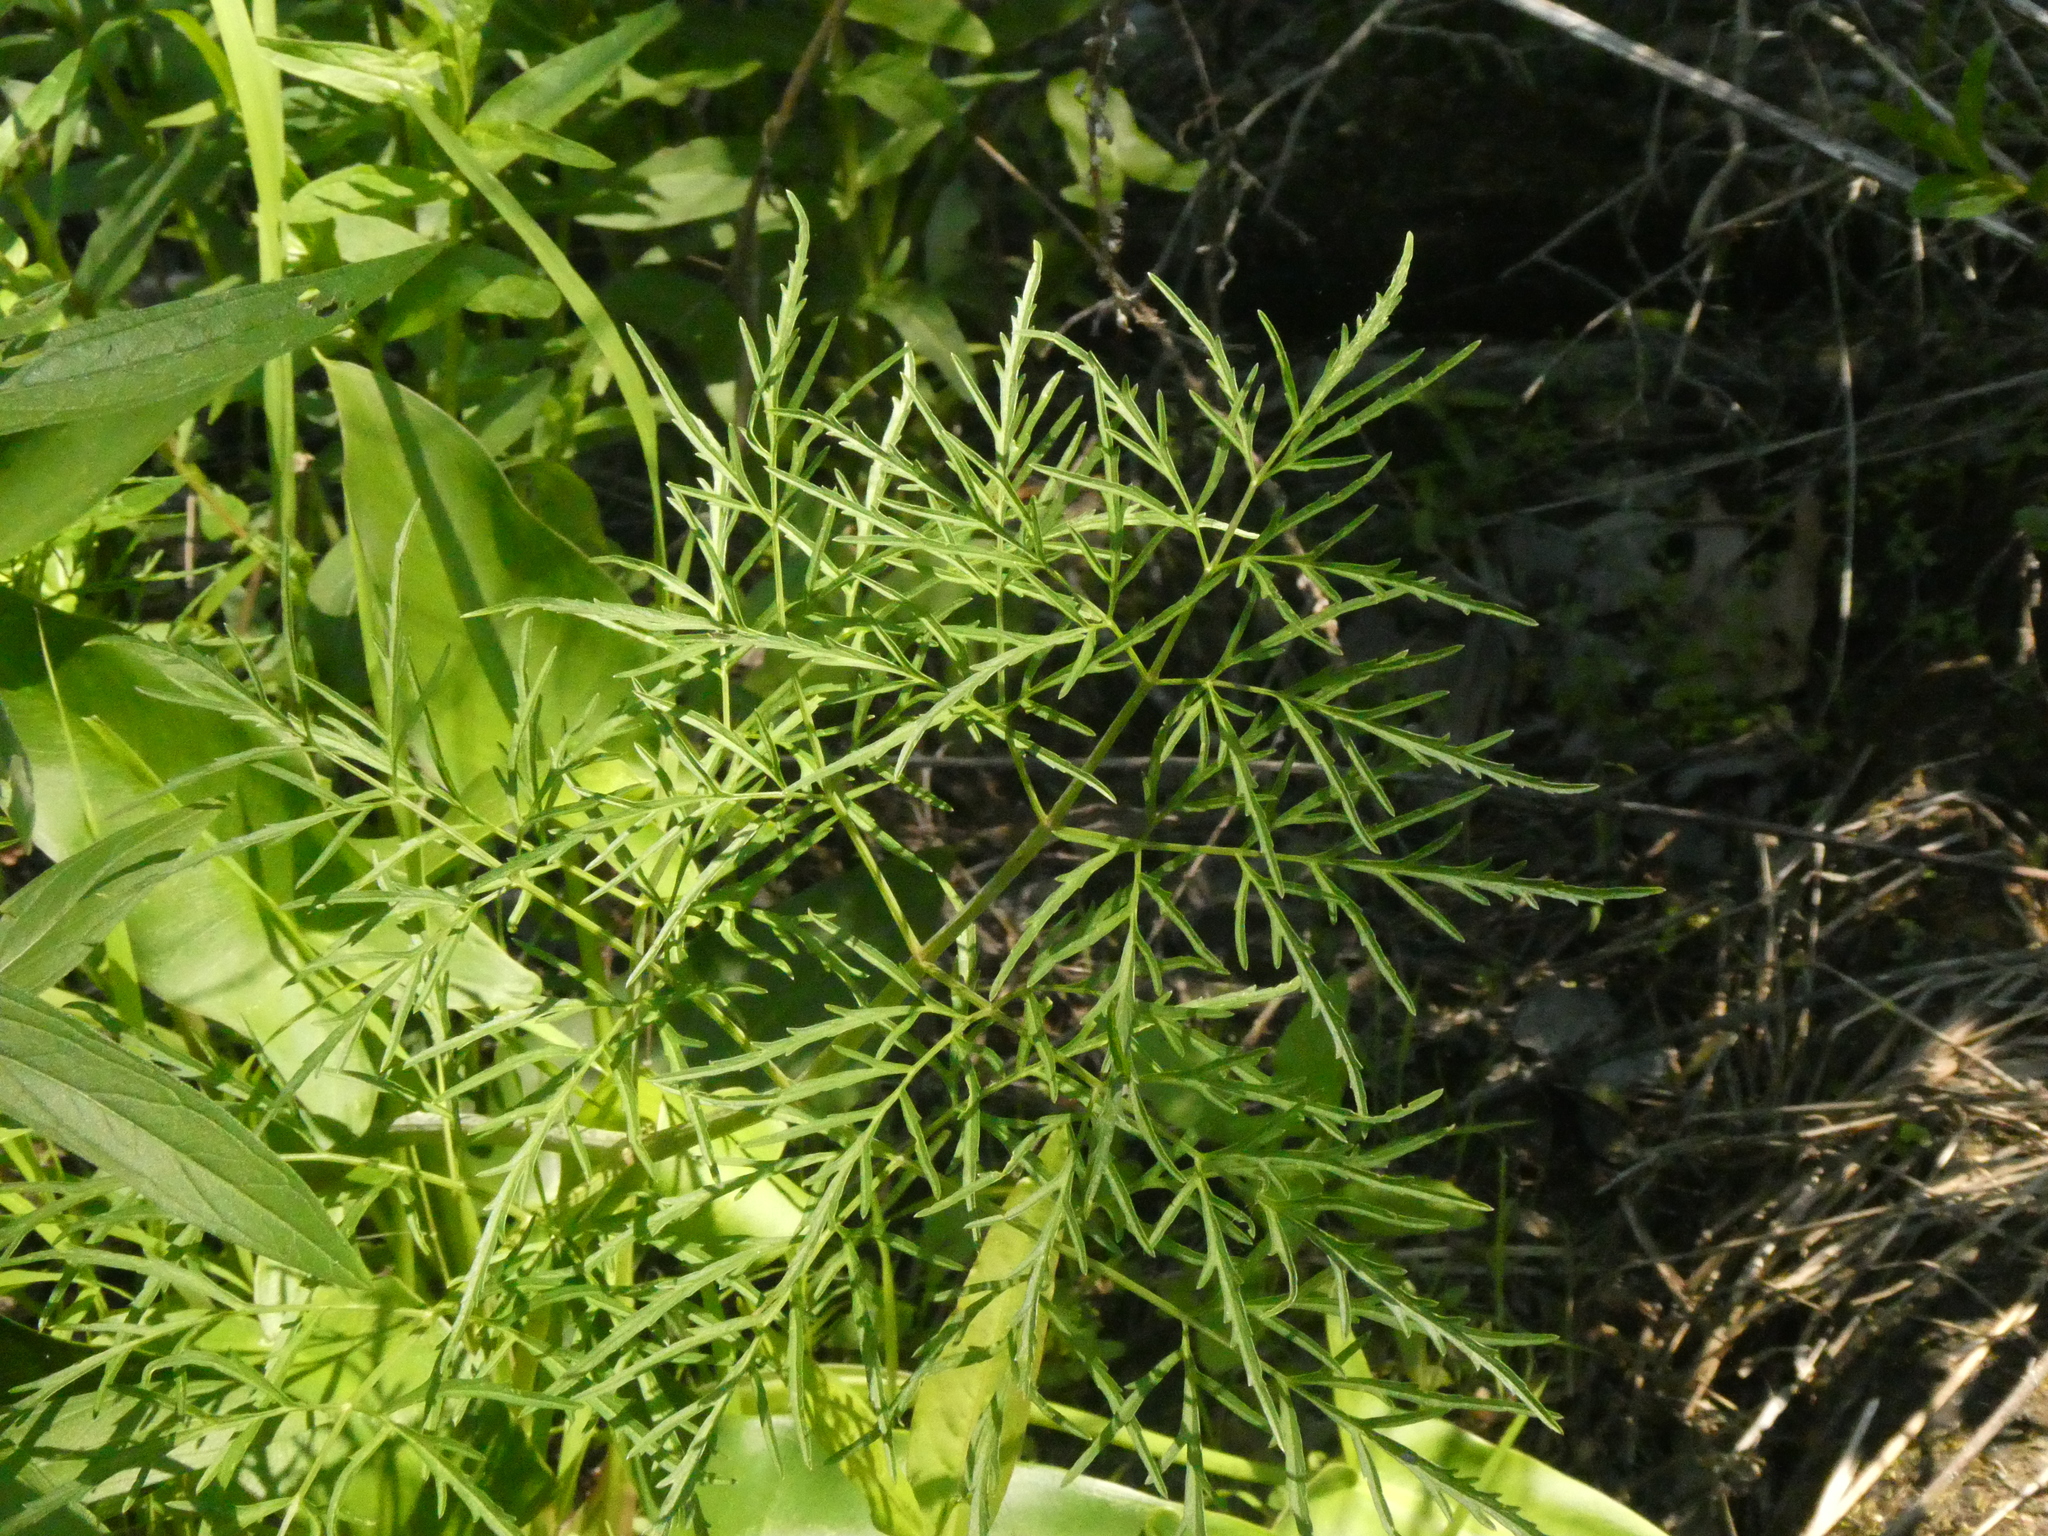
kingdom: Plantae
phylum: Tracheophyta
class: Magnoliopsida
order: Apiales
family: Apiaceae
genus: Cicuta
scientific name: Cicuta bulbifera
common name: Bulb-bearing water-hemlock
